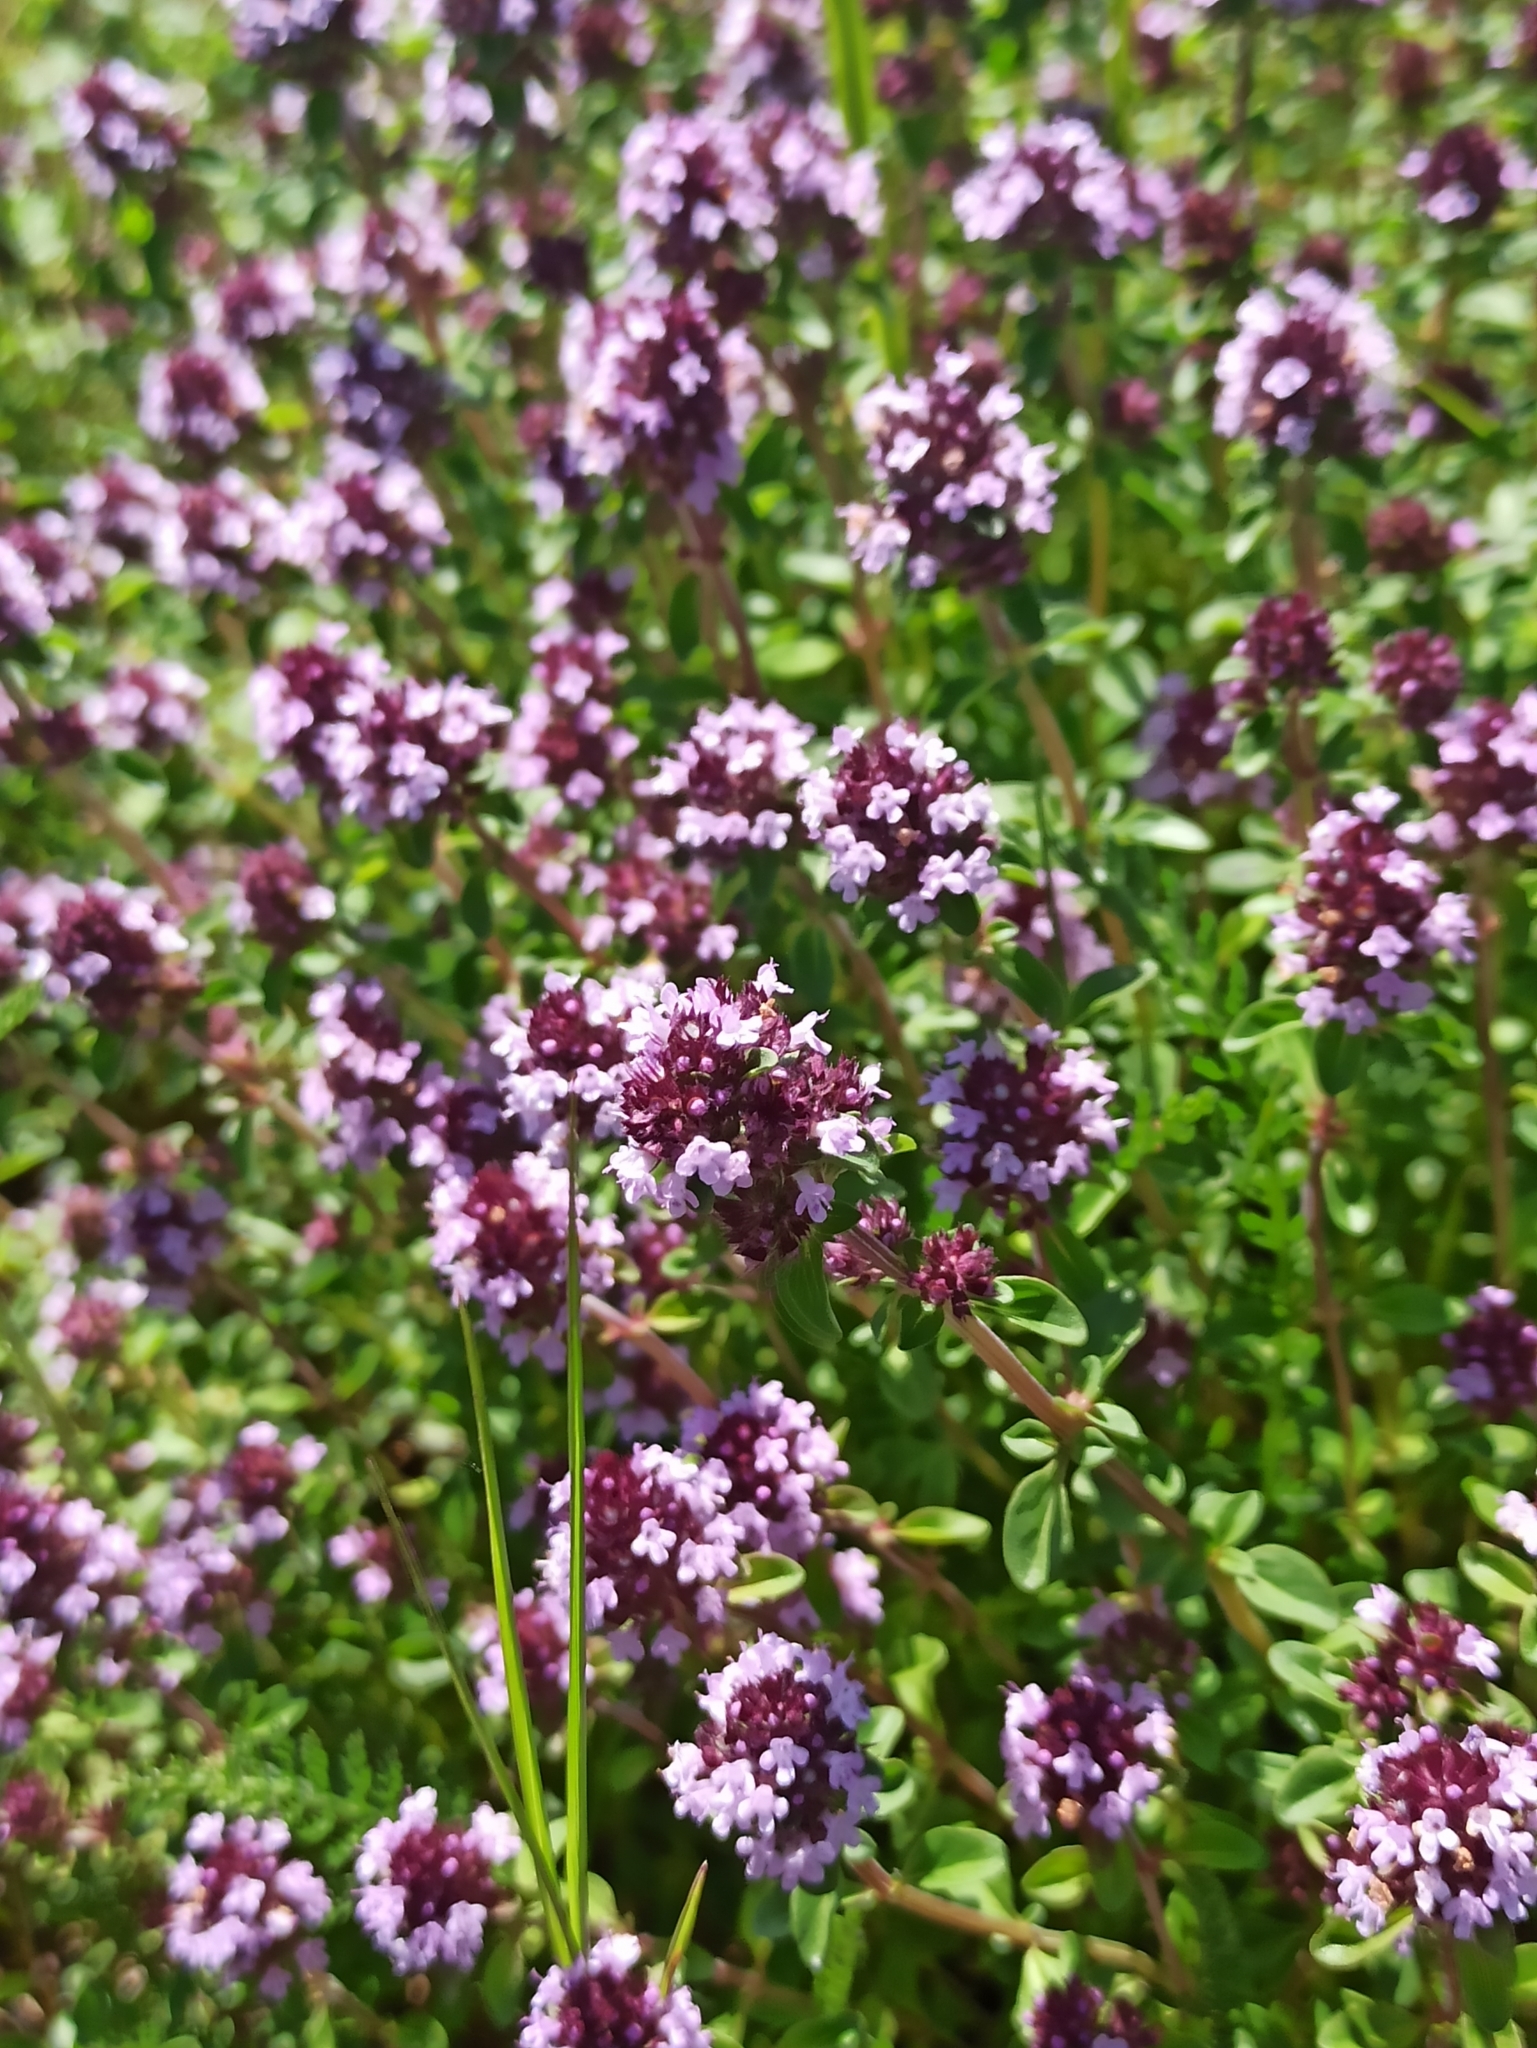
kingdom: Plantae
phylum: Tracheophyta
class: Magnoliopsida
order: Lamiales
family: Lamiaceae
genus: Thymus
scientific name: Thymus pulegioides
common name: Large thyme
